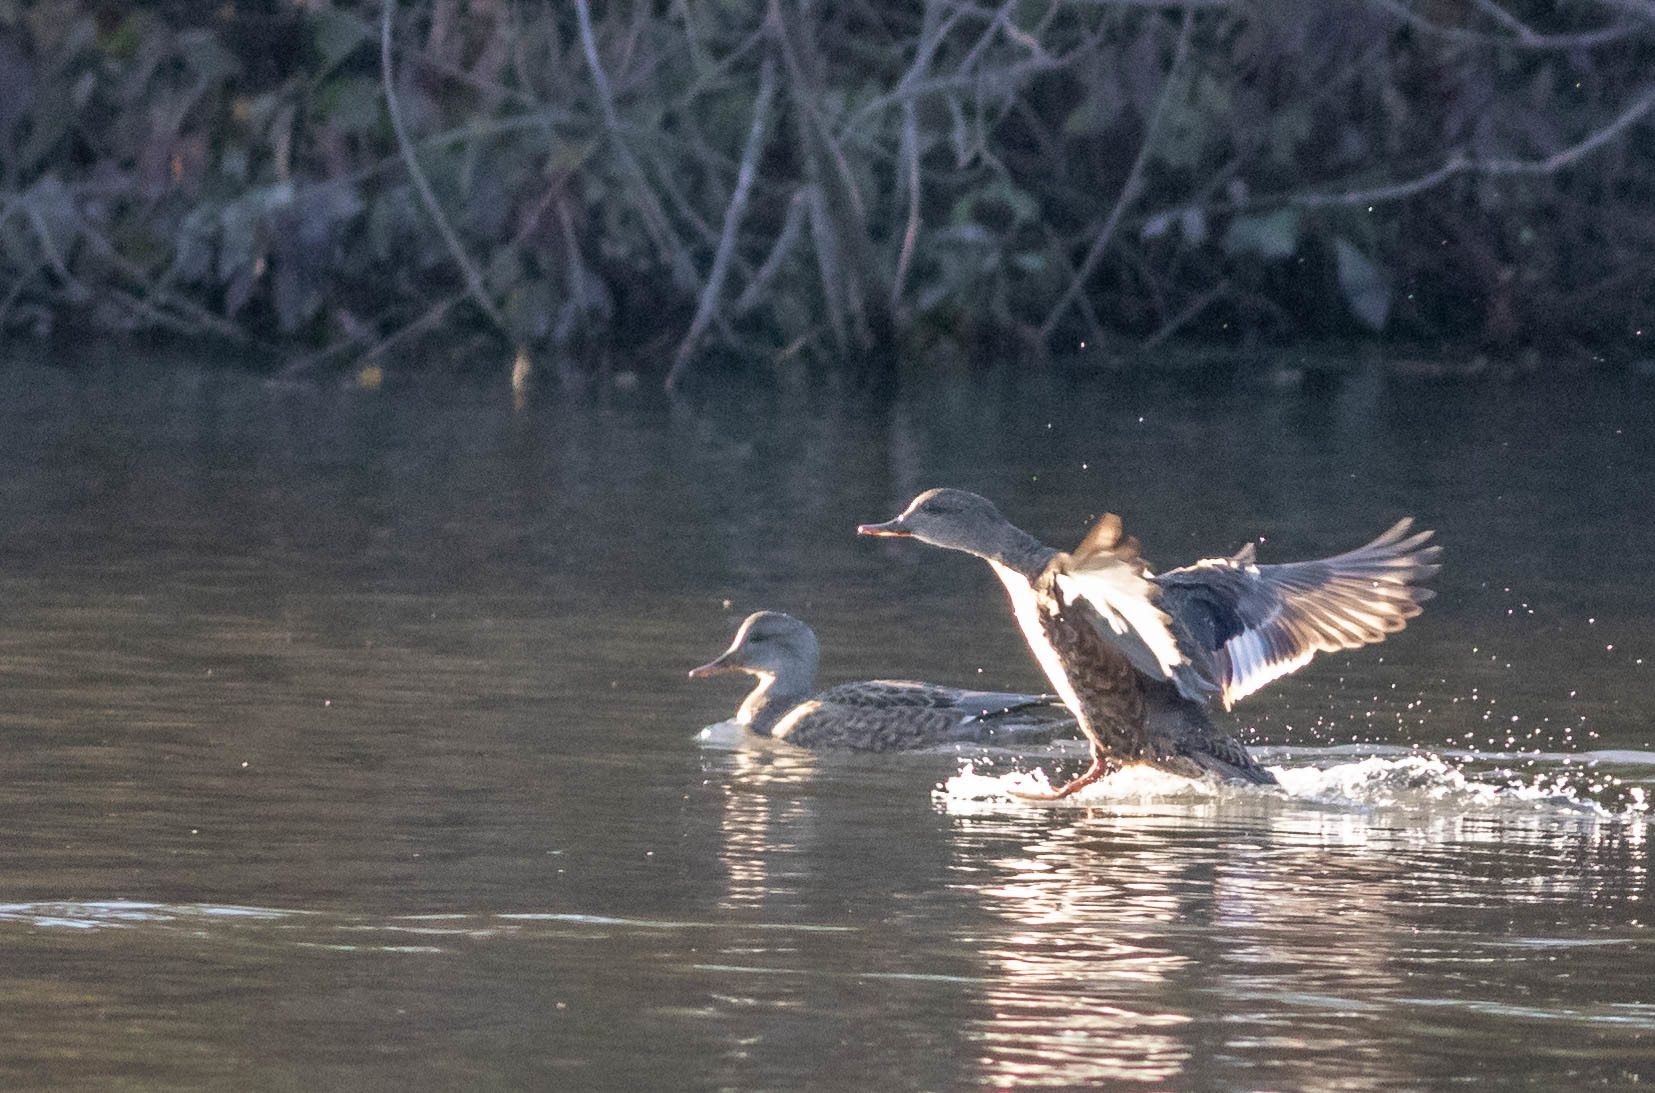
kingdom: Animalia
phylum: Chordata
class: Aves
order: Anseriformes
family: Anatidae
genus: Mareca
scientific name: Mareca strepera
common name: Gadwall
